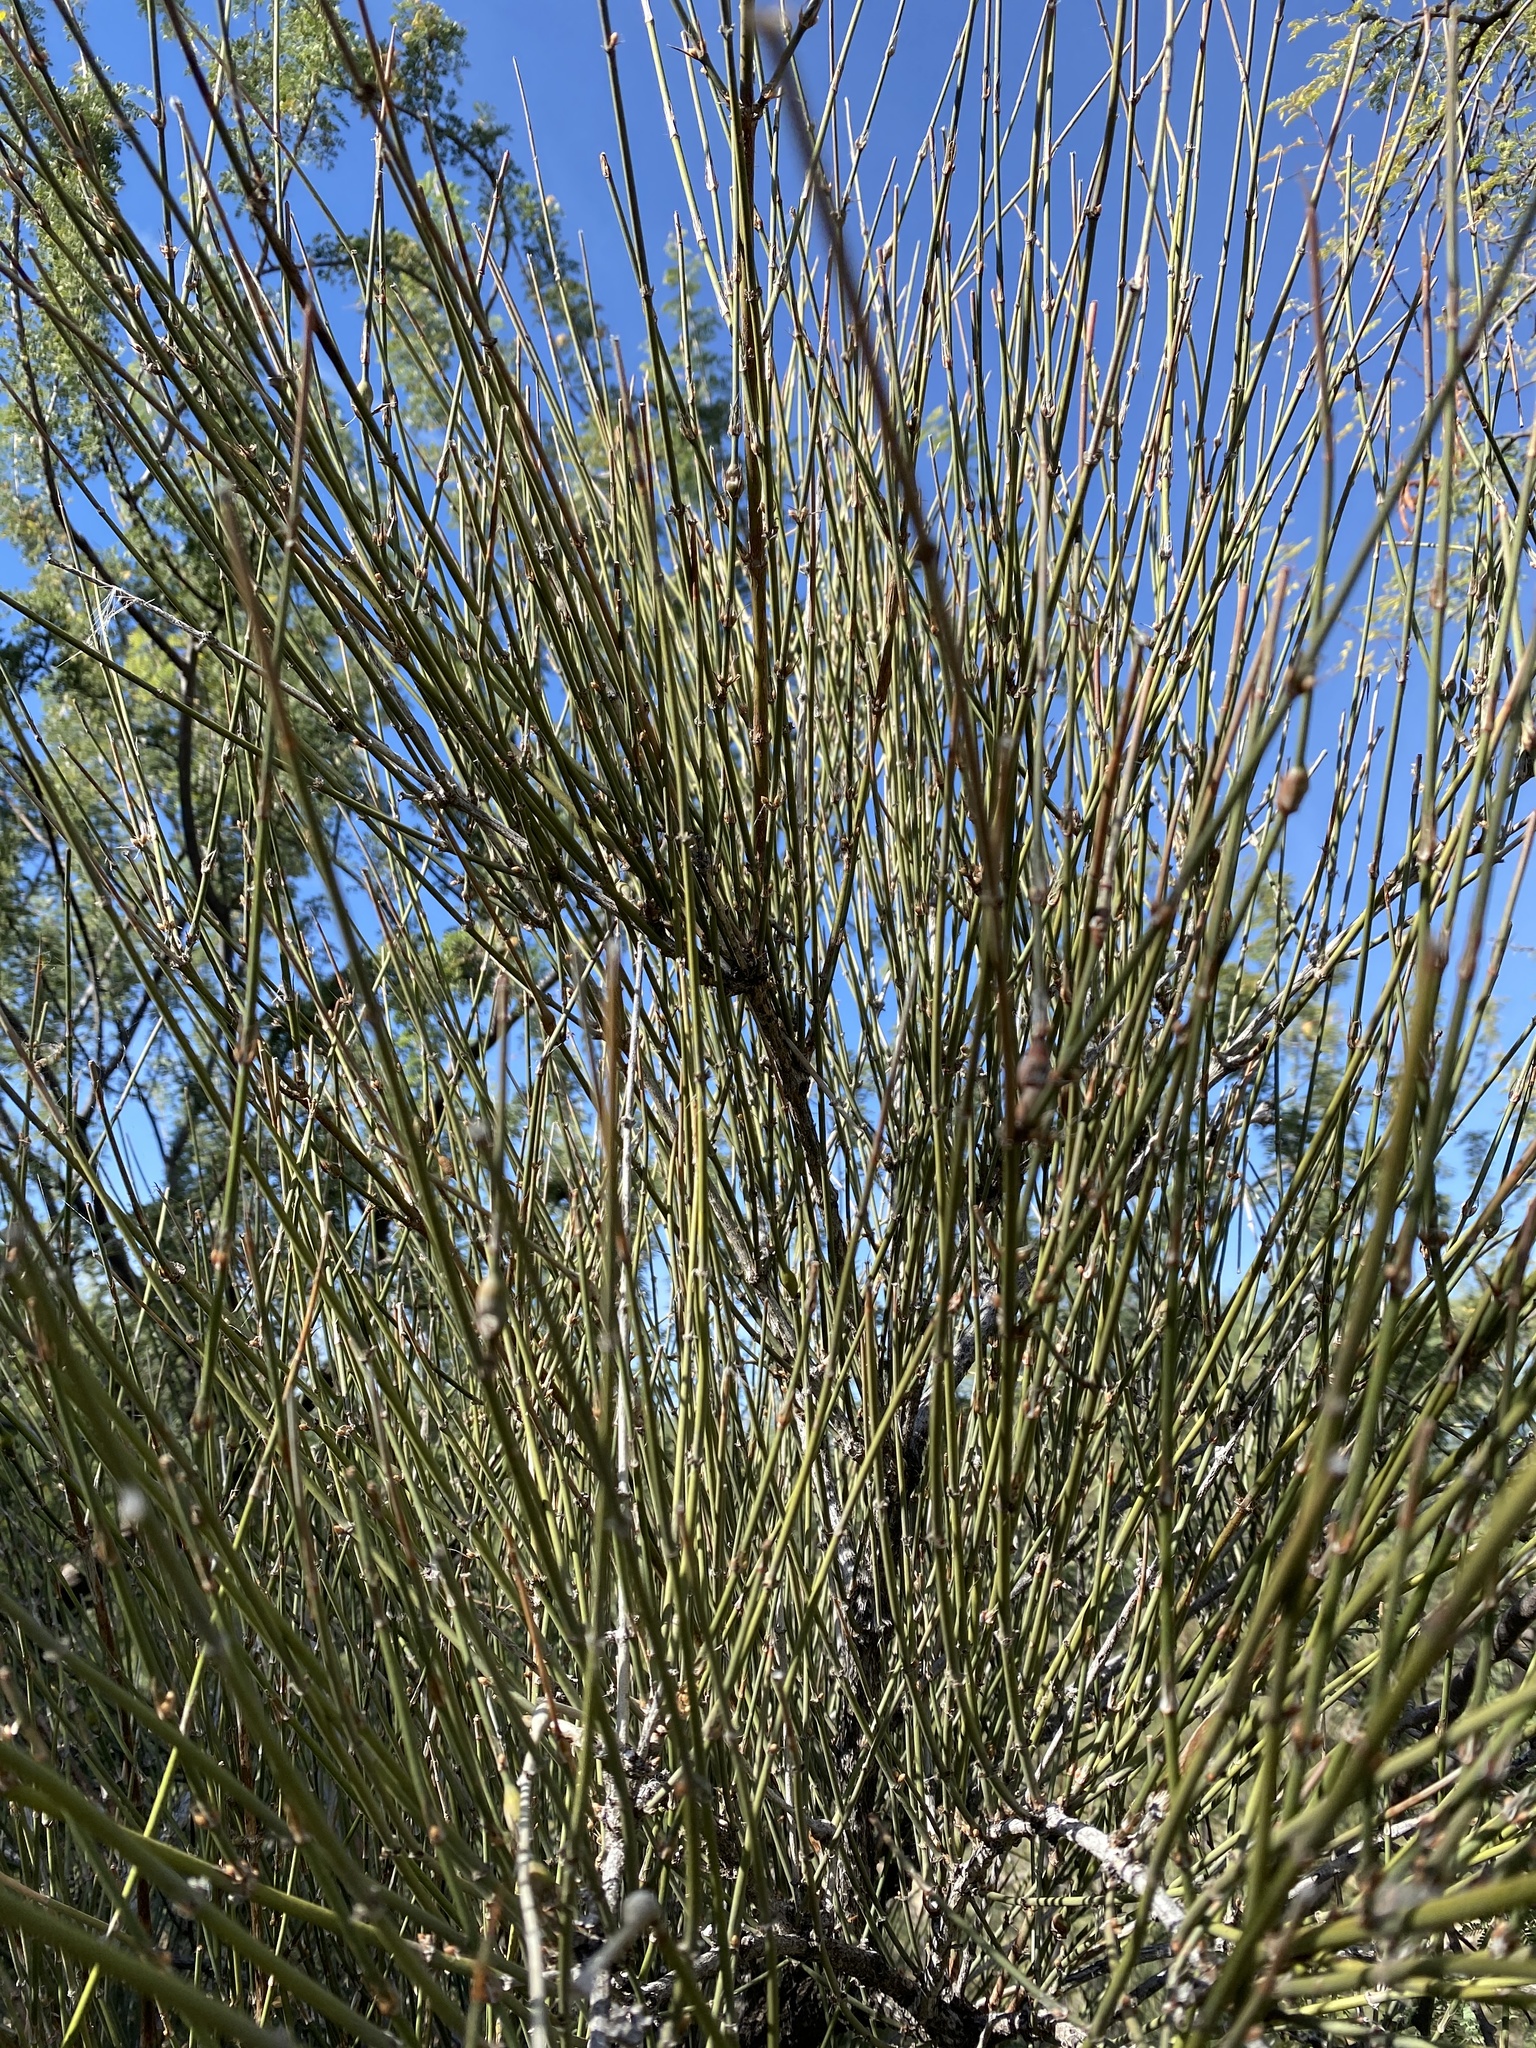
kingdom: Plantae
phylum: Tracheophyta
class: Gnetopsida
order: Ephedrales
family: Ephedraceae
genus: Ephedra
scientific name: Ephedra trifurca
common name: Mexican-tea
